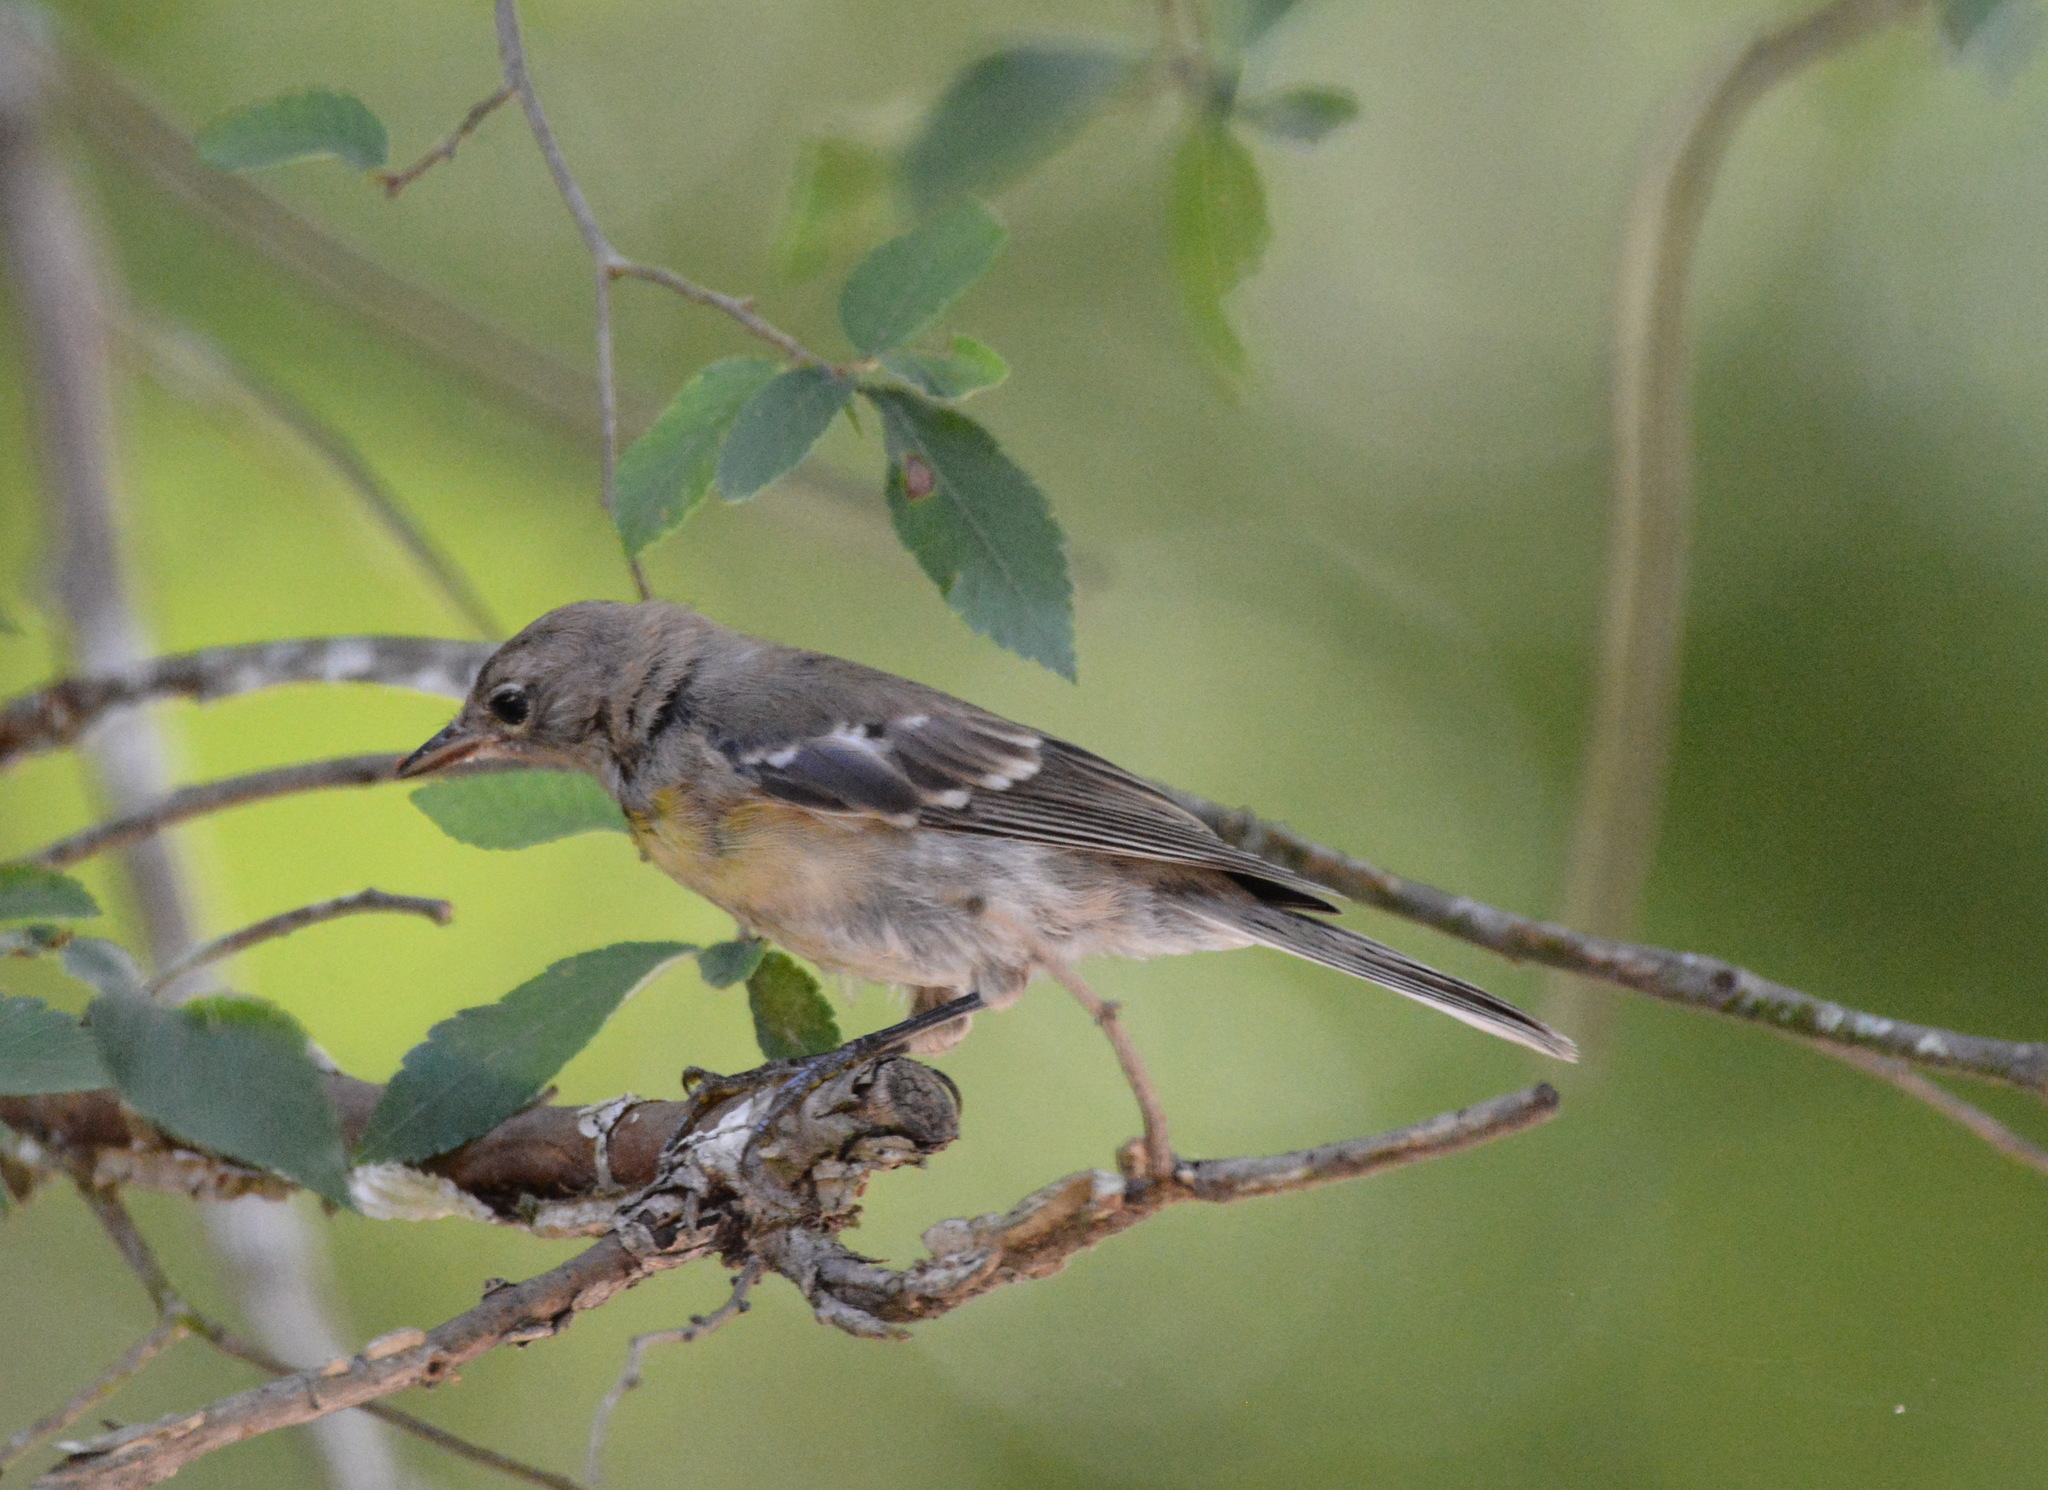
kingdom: Animalia
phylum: Chordata
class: Aves
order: Passeriformes
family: Parulidae
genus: Setophaga
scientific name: Setophaga pinus
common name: Pine warbler
